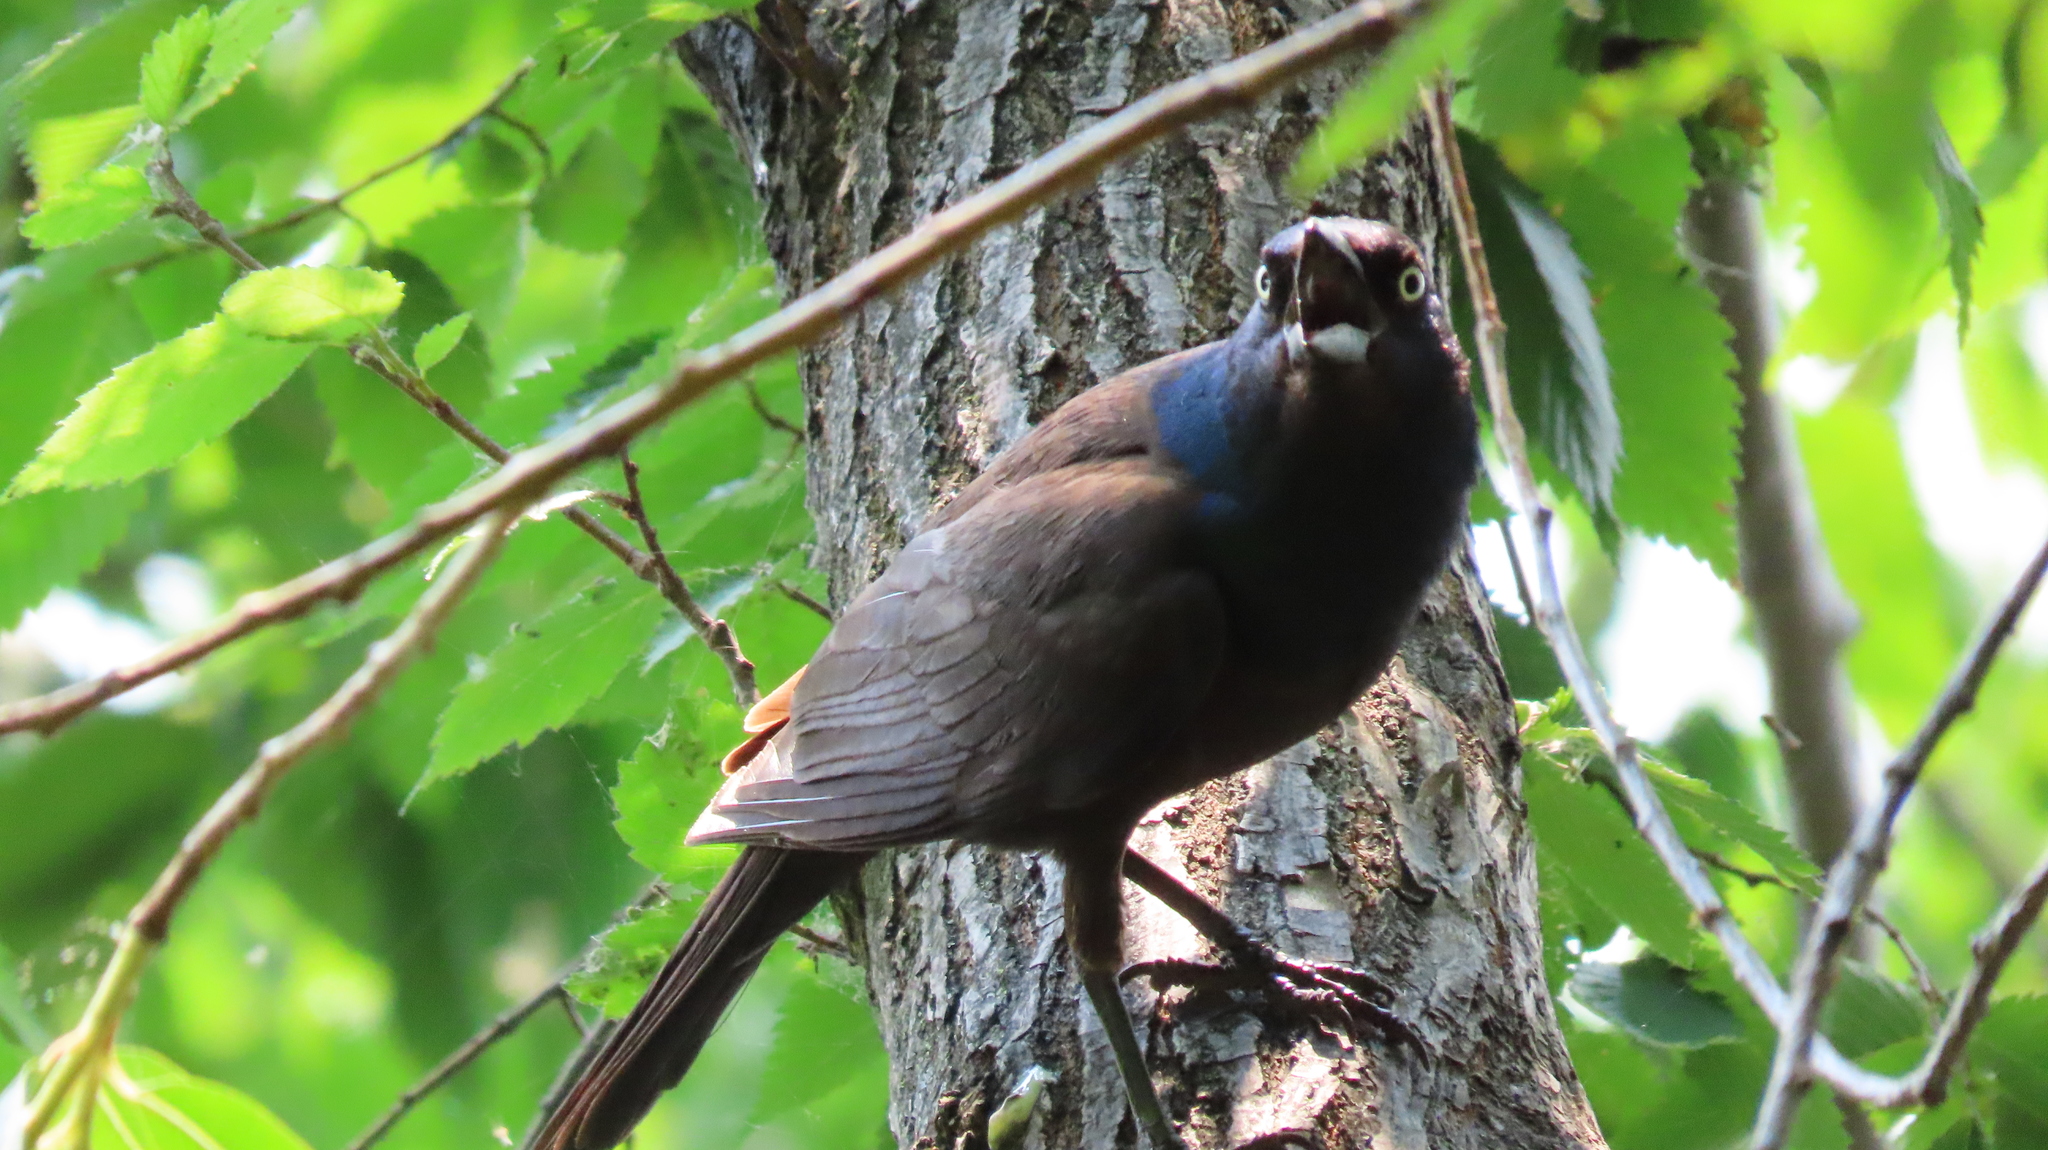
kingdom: Animalia
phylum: Chordata
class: Aves
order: Passeriformes
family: Icteridae
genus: Quiscalus
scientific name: Quiscalus quiscula
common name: Common grackle
